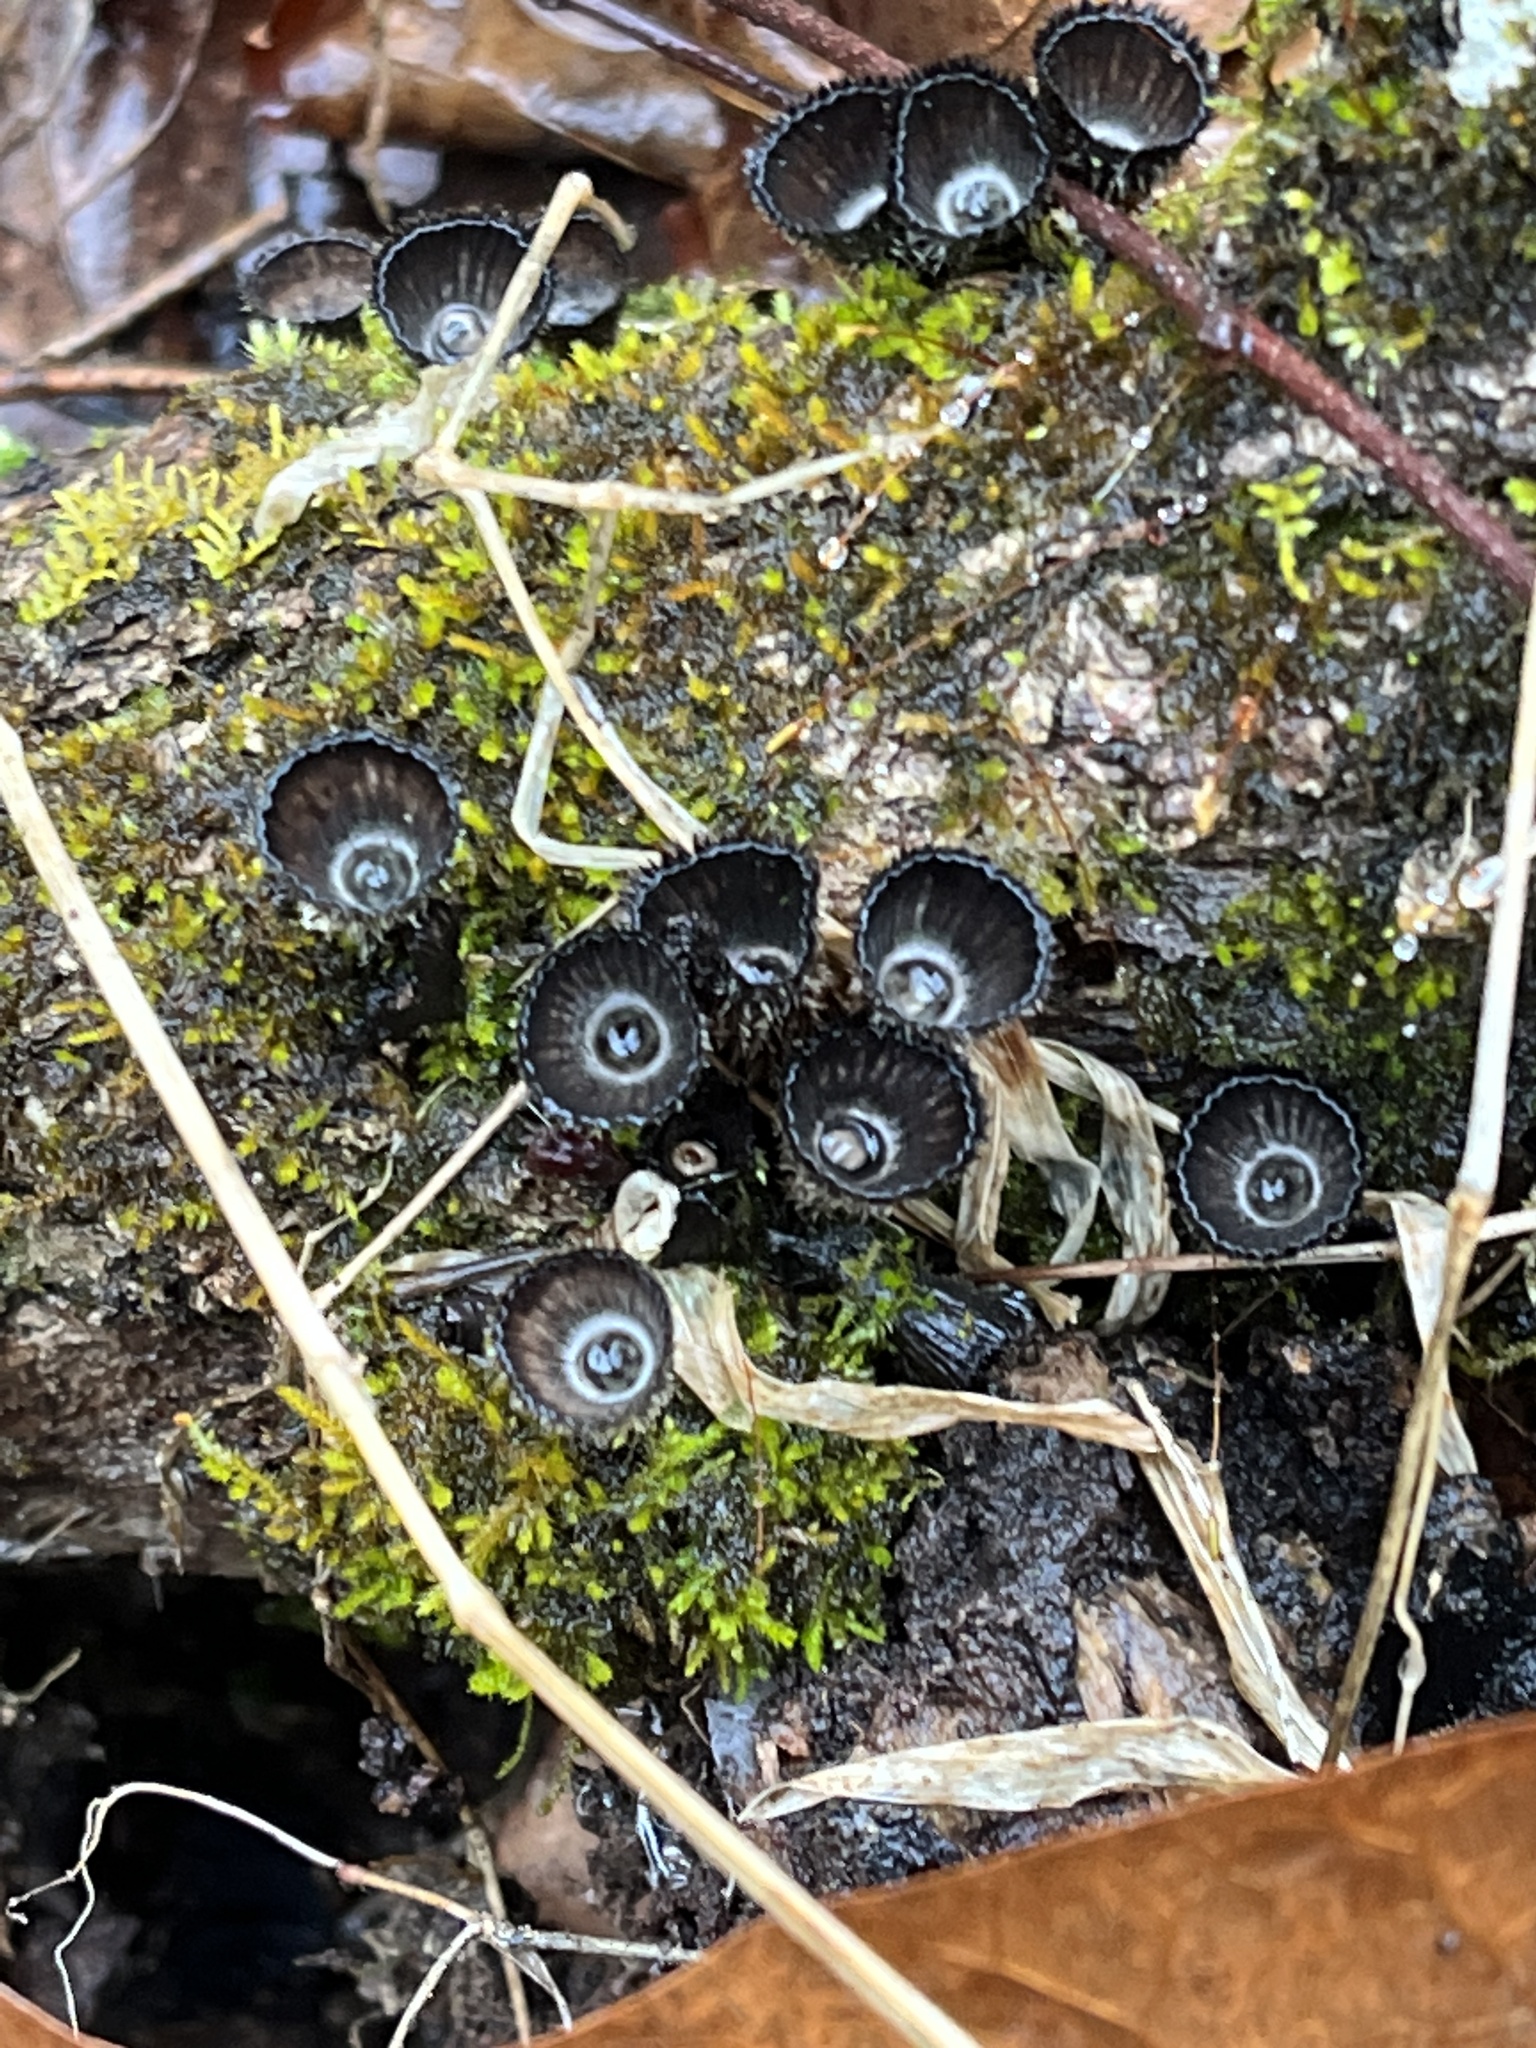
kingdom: Fungi
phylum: Basidiomycota
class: Agaricomycetes
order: Agaricales
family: Agaricaceae
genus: Cyathus
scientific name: Cyathus striatus
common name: Fluted bird's nest
